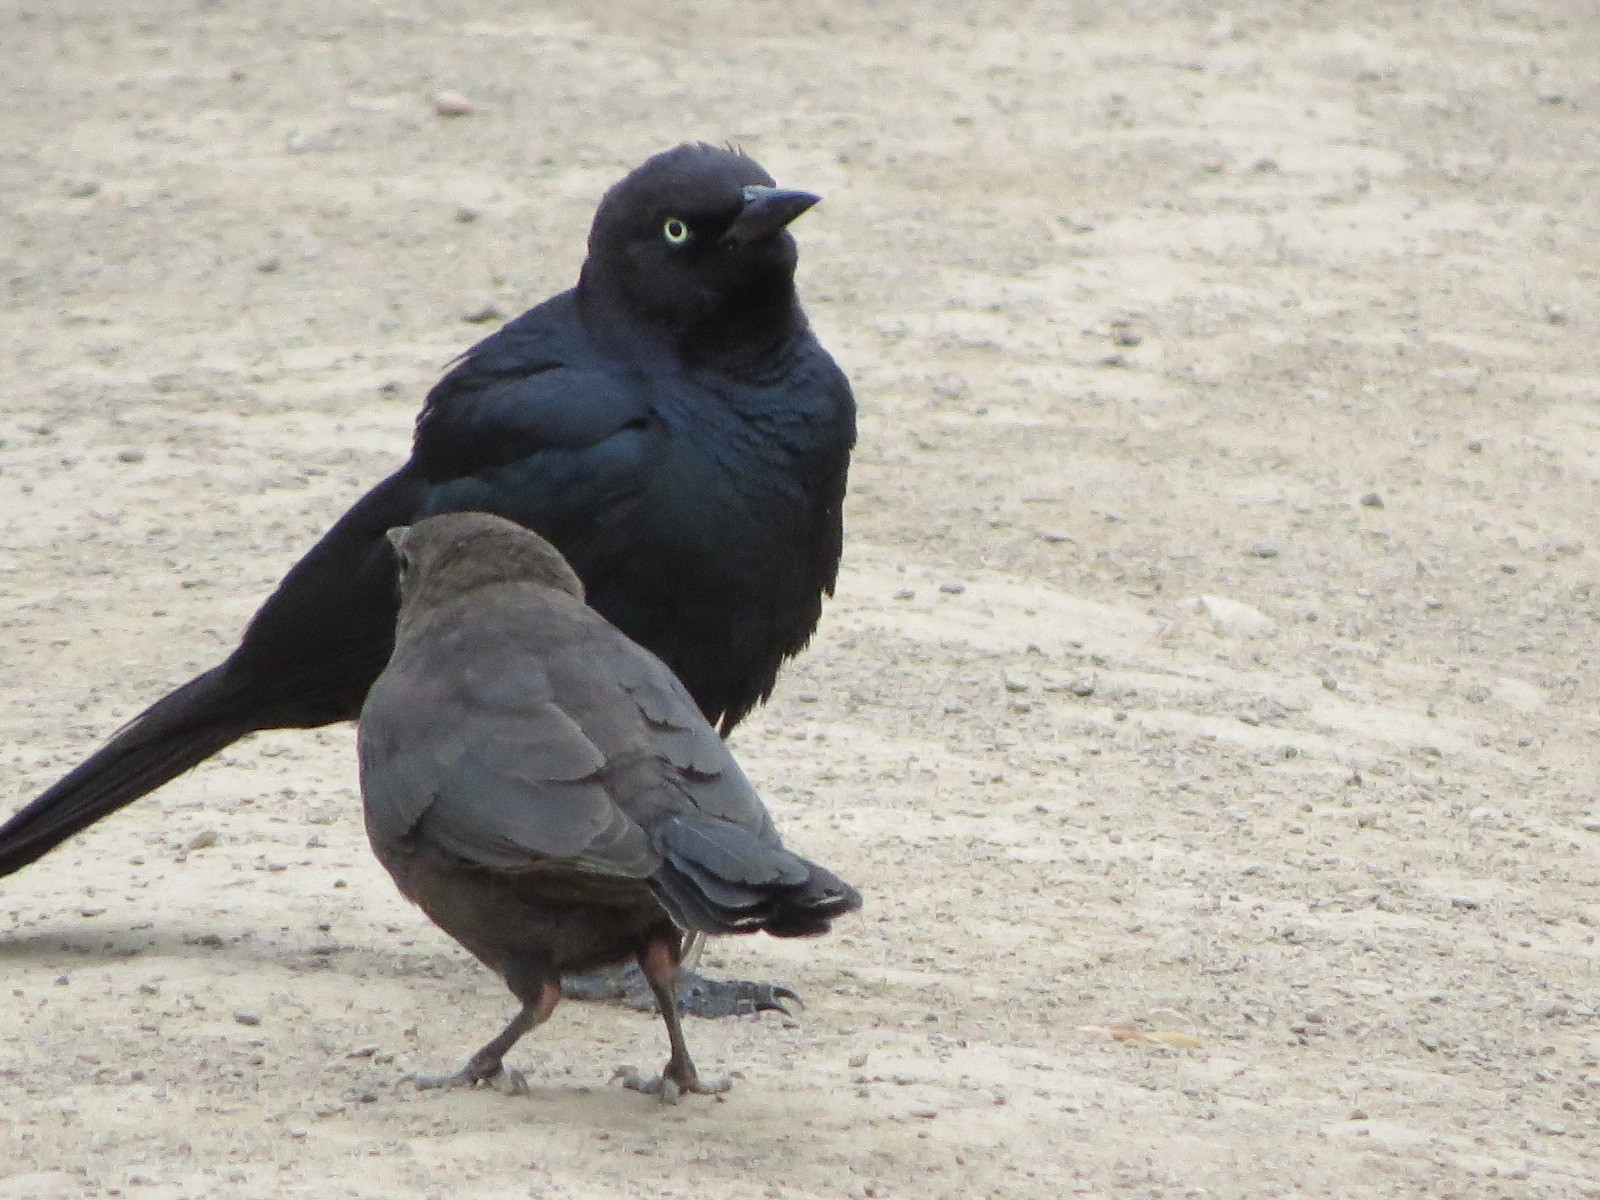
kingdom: Animalia
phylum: Chordata
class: Aves
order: Passeriformes
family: Icteridae
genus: Euphagus
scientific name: Euphagus cyanocephalus
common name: Brewer's blackbird
